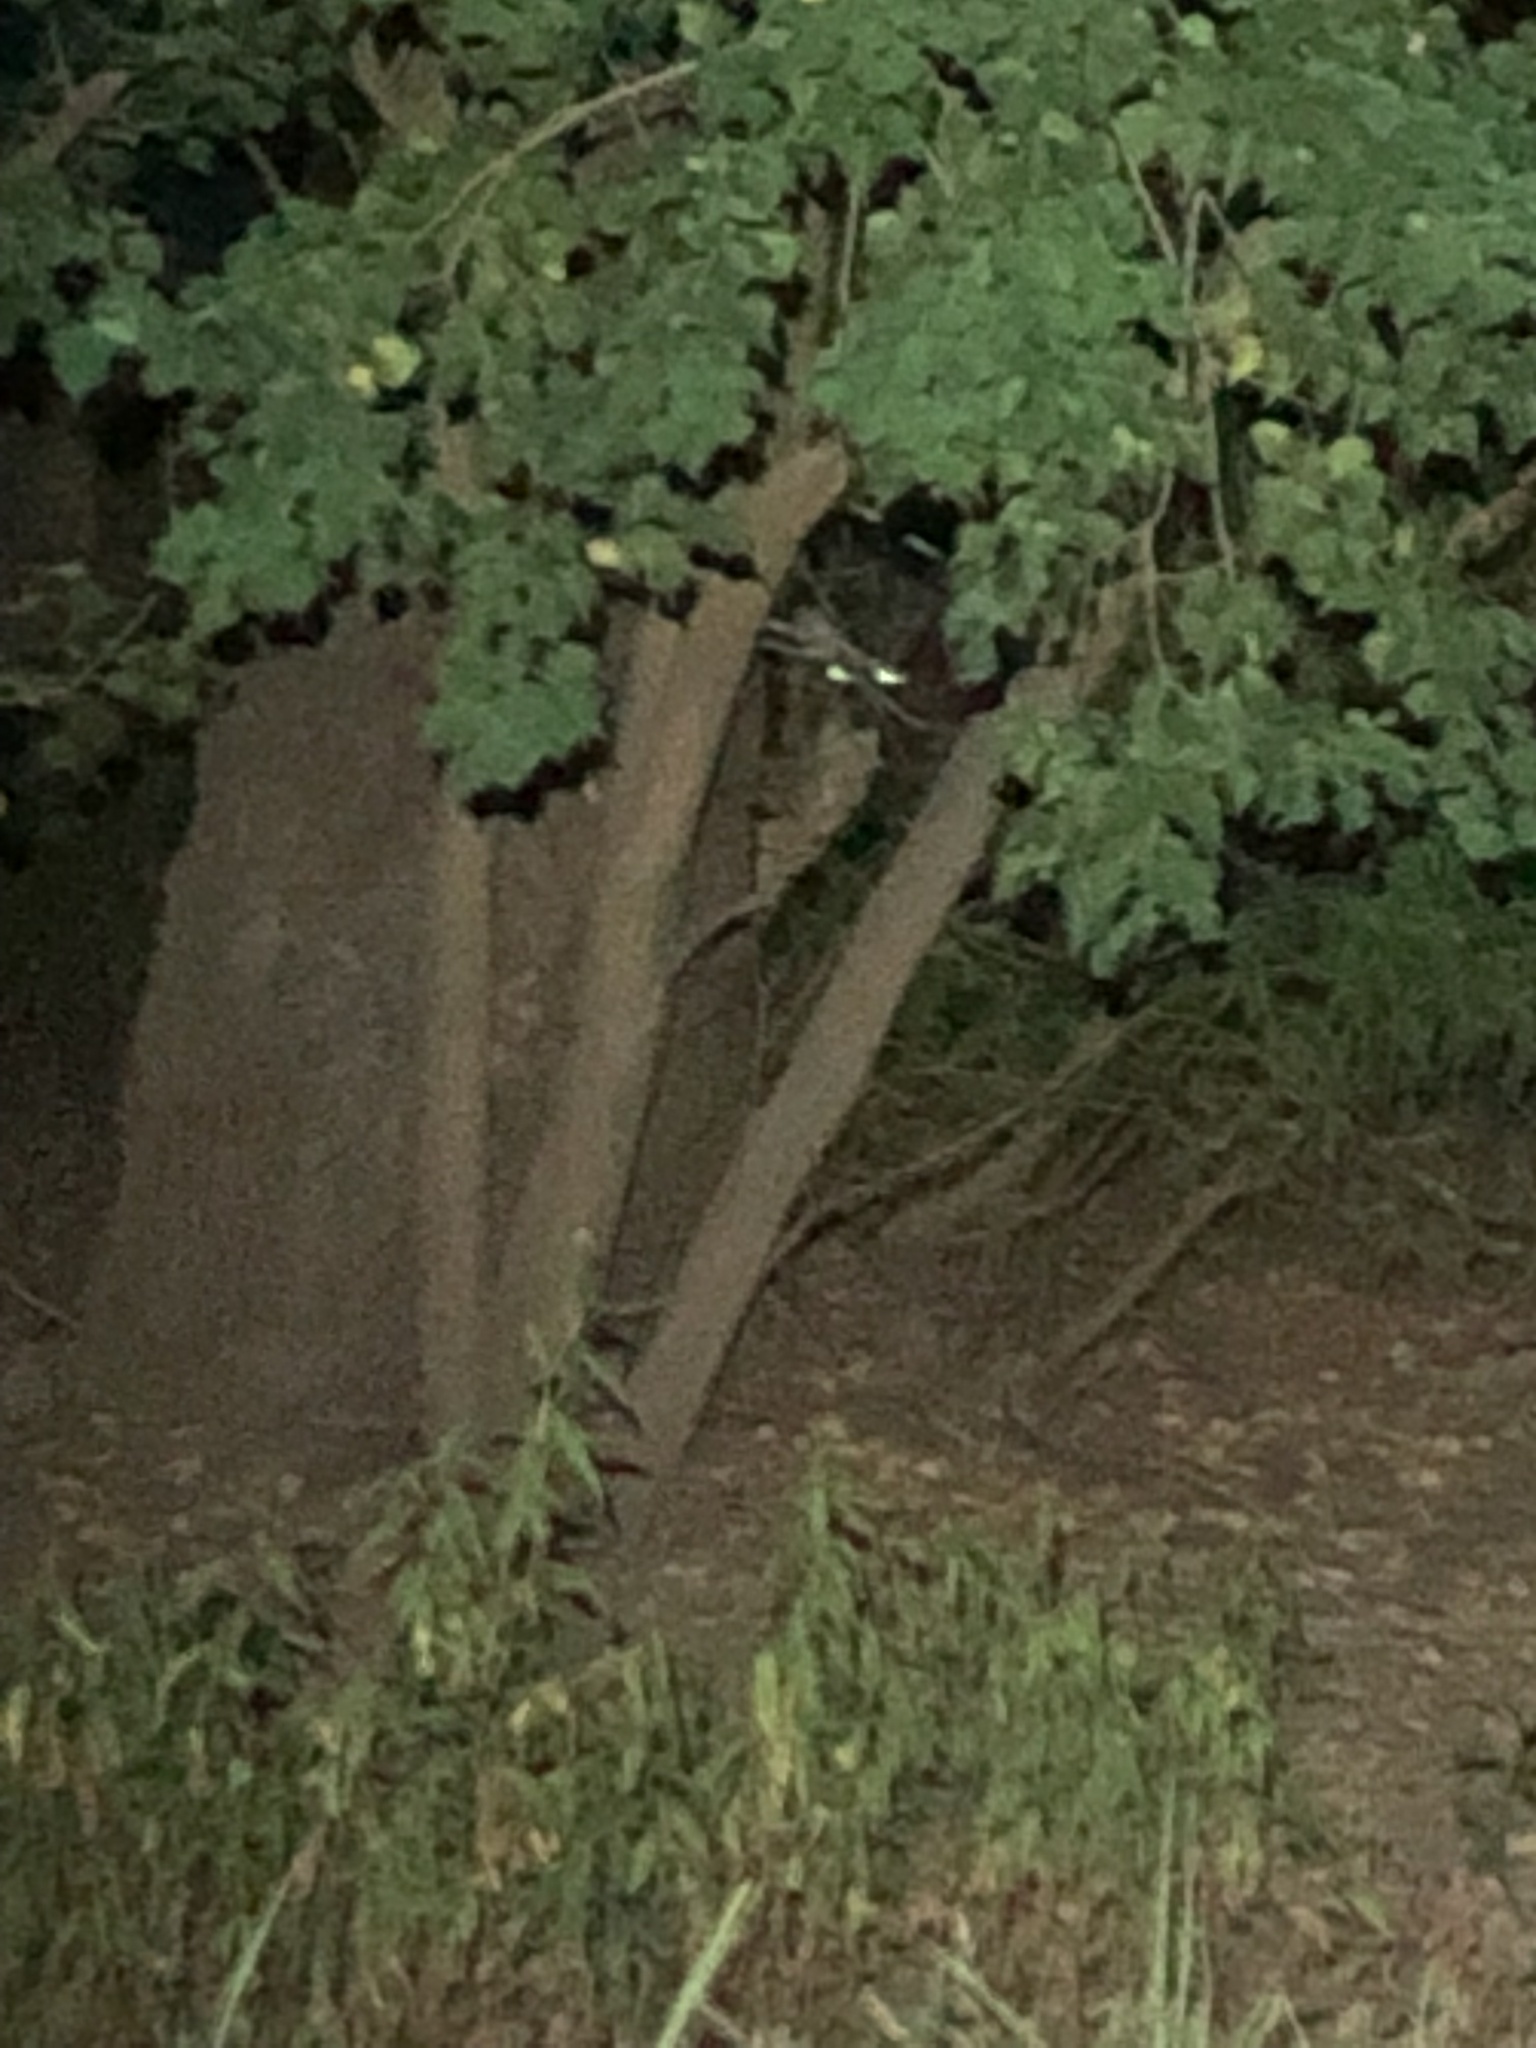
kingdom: Animalia
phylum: Chordata
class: Mammalia
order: Artiodactyla
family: Cervidae
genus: Odocoileus
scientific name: Odocoileus virginianus
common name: White-tailed deer
